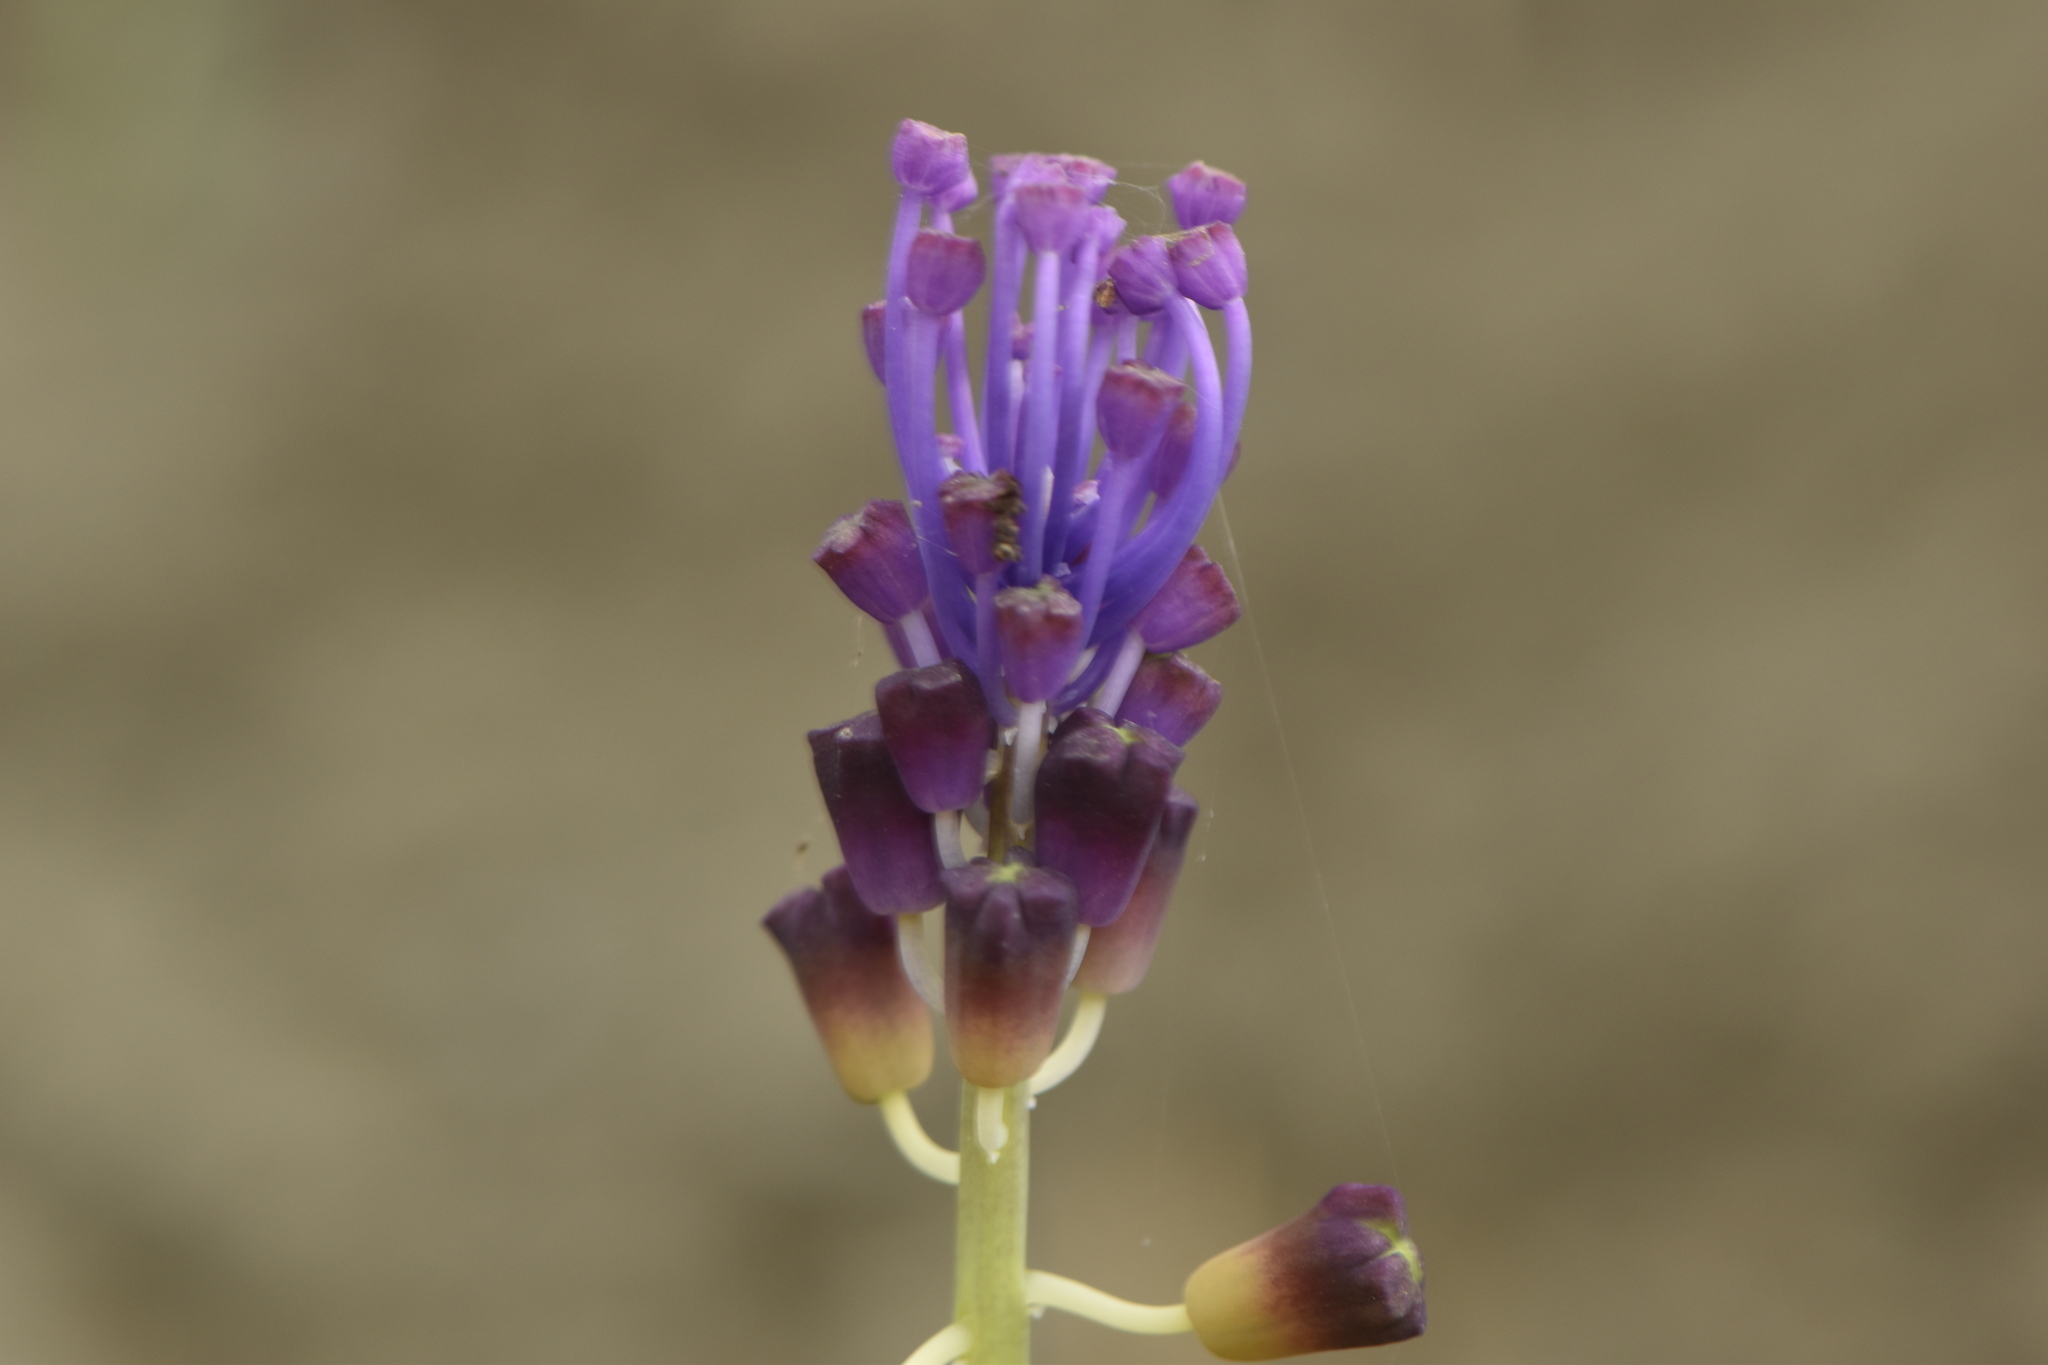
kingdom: Plantae
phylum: Tracheophyta
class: Liliopsida
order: Asparagales
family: Asparagaceae
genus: Muscari
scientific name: Muscari comosum
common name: Tassel hyacinth
